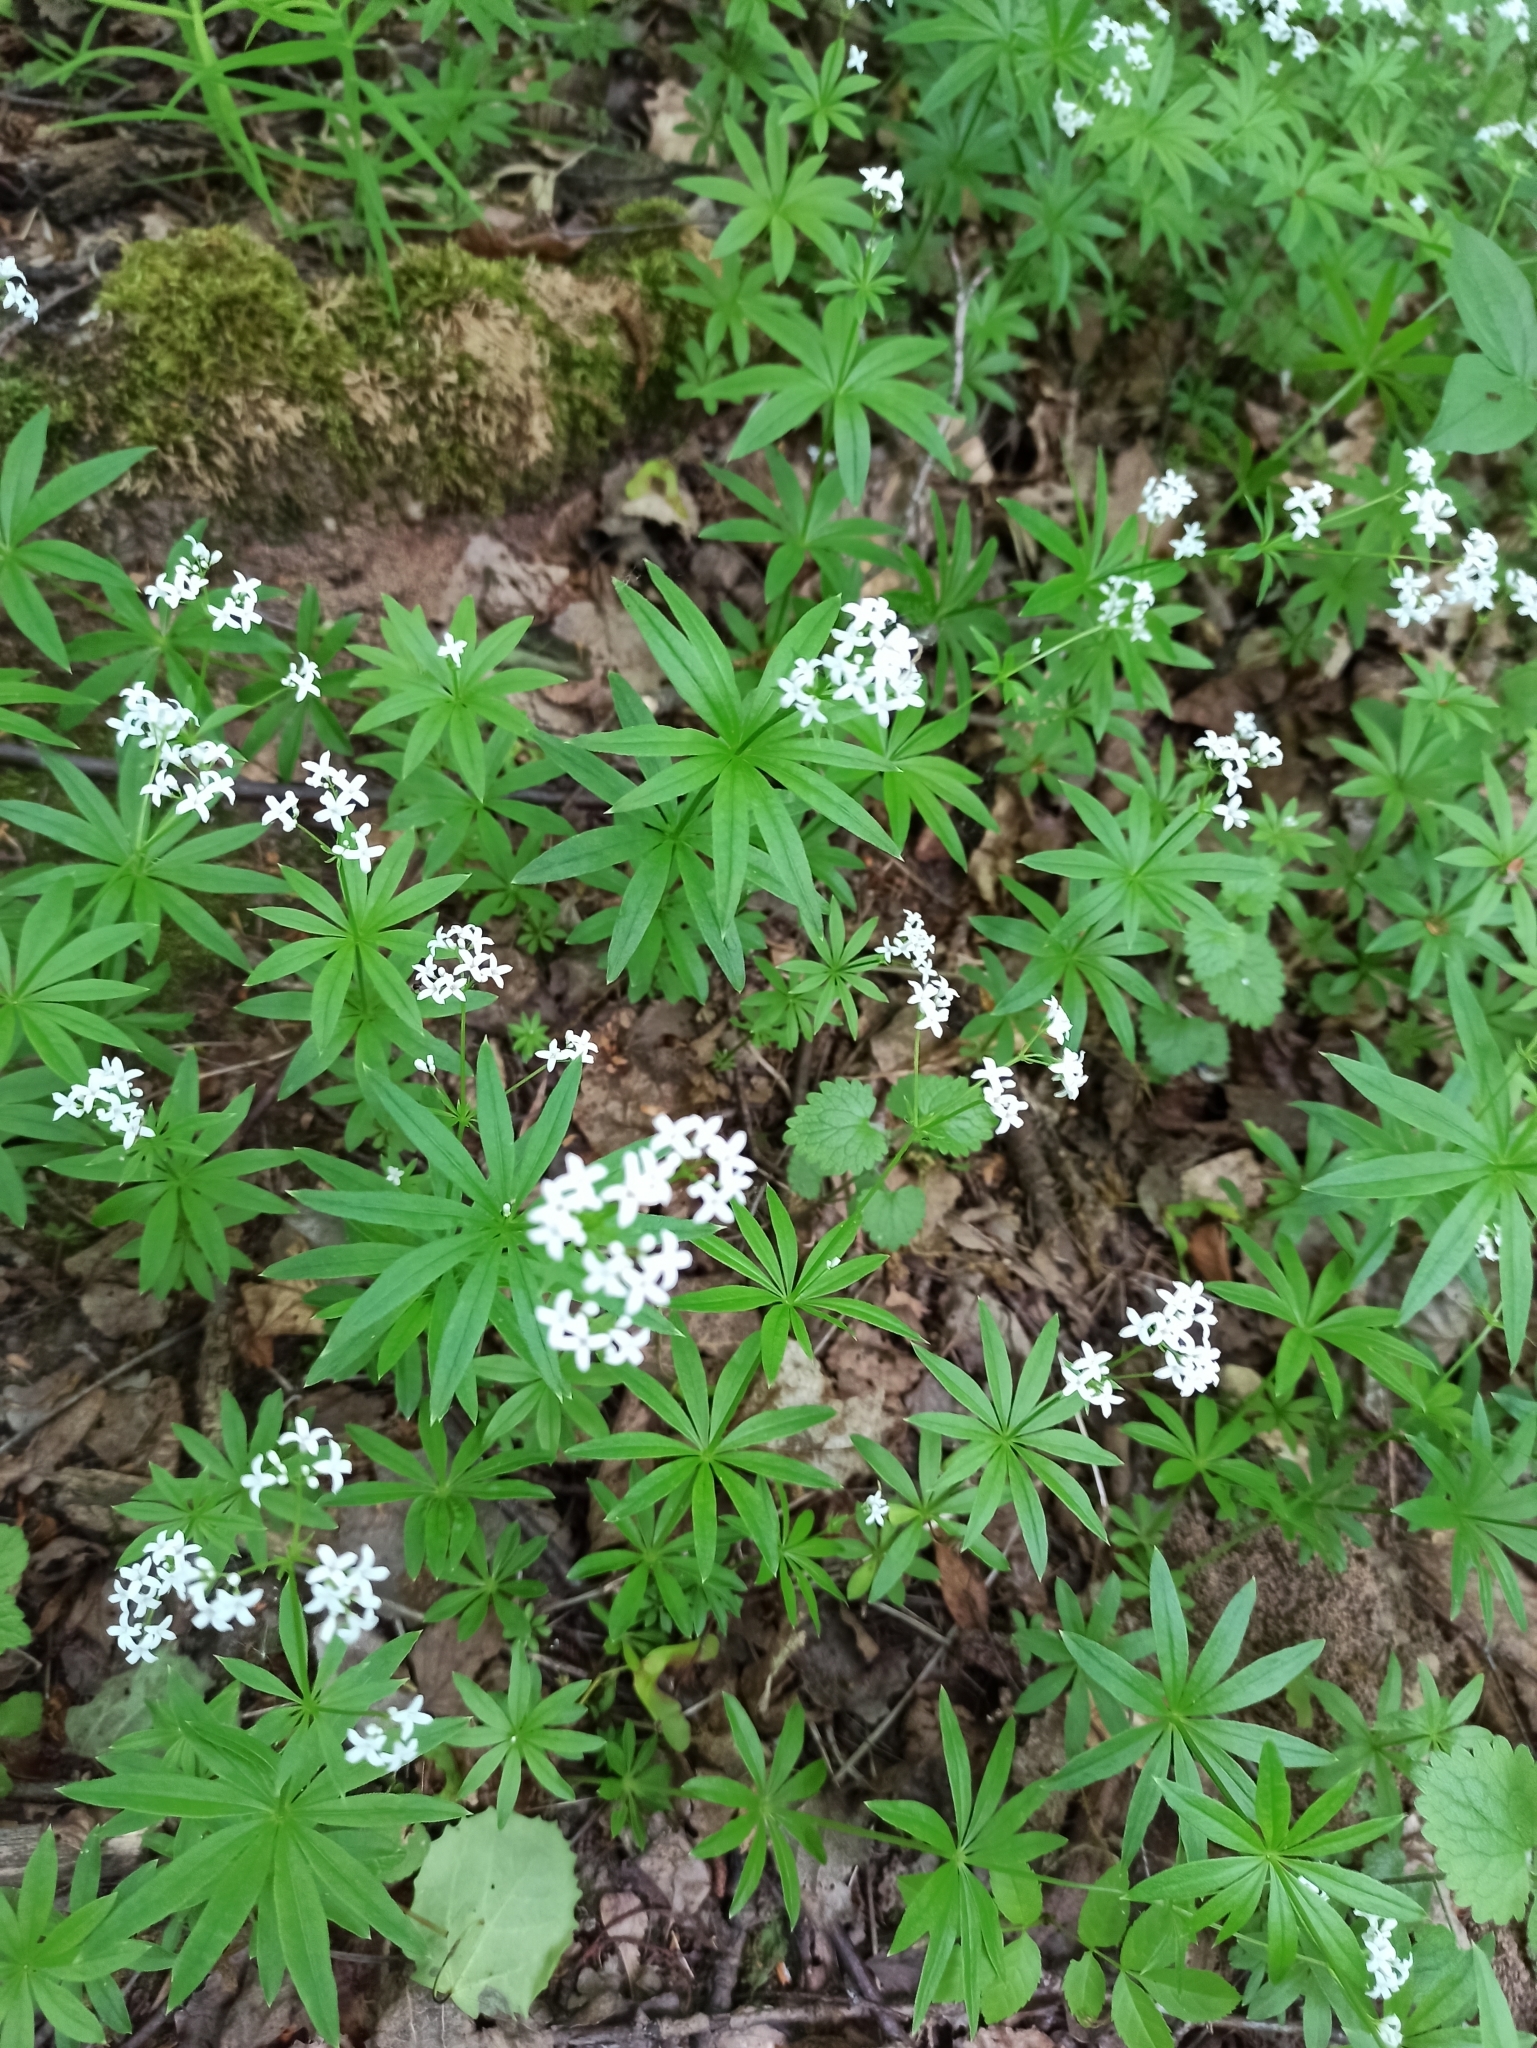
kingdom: Plantae
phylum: Tracheophyta
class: Magnoliopsida
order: Gentianales
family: Rubiaceae
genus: Galium
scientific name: Galium odoratum
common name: Sweet woodruff
